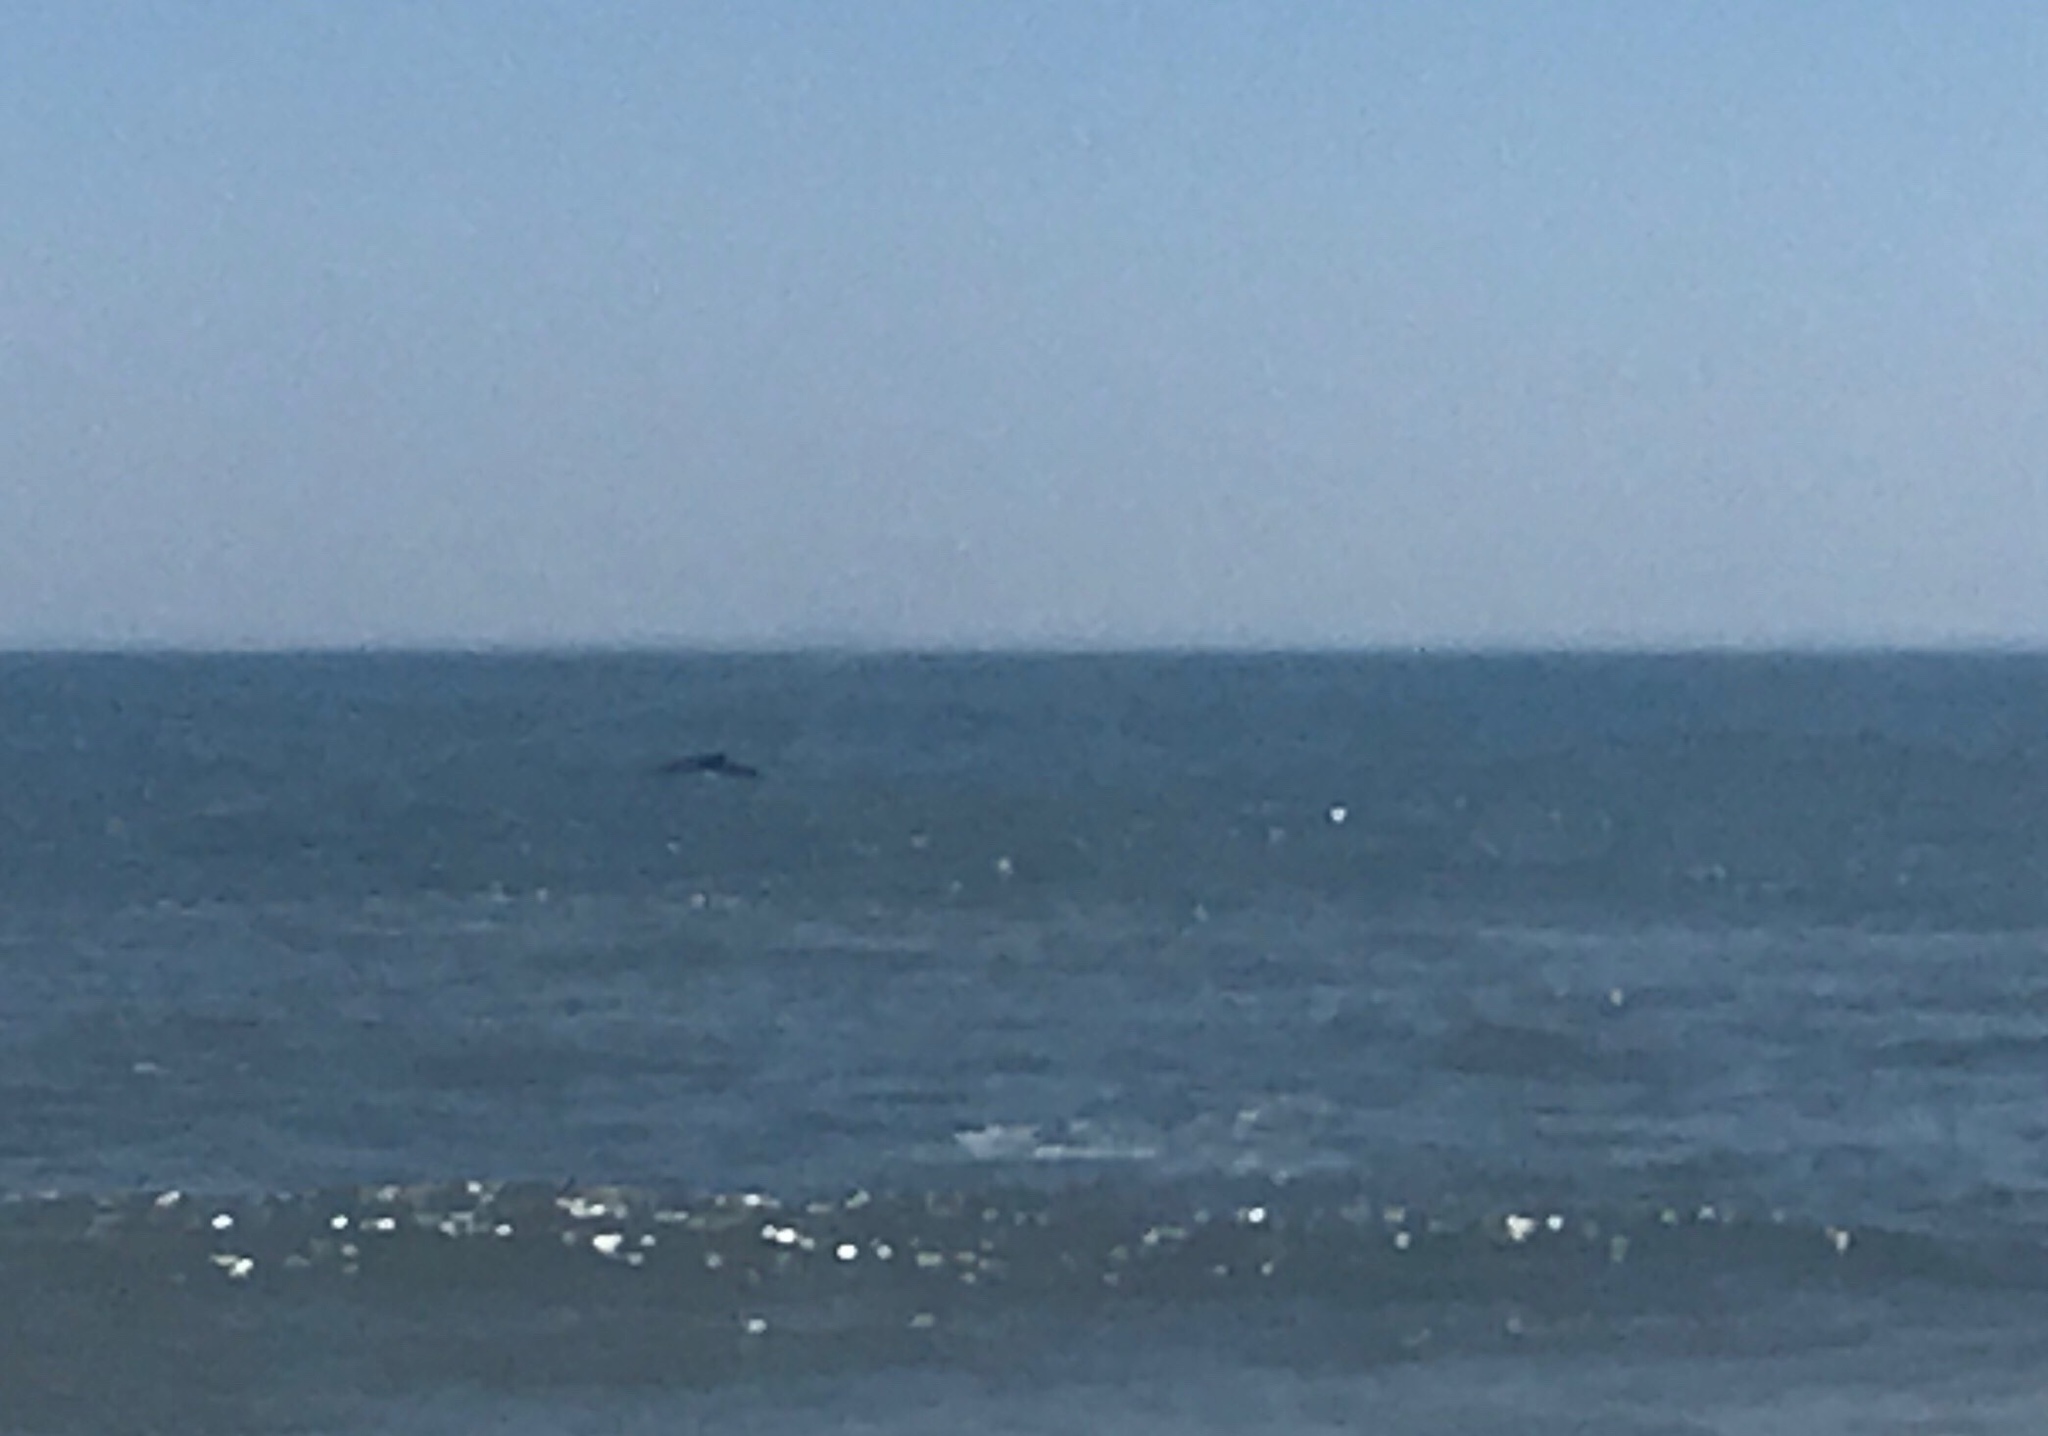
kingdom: Animalia
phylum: Chordata
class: Mammalia
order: Cetacea
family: Balaenopteridae
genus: Megaptera
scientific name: Megaptera novaeangliae
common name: Humpback whale
